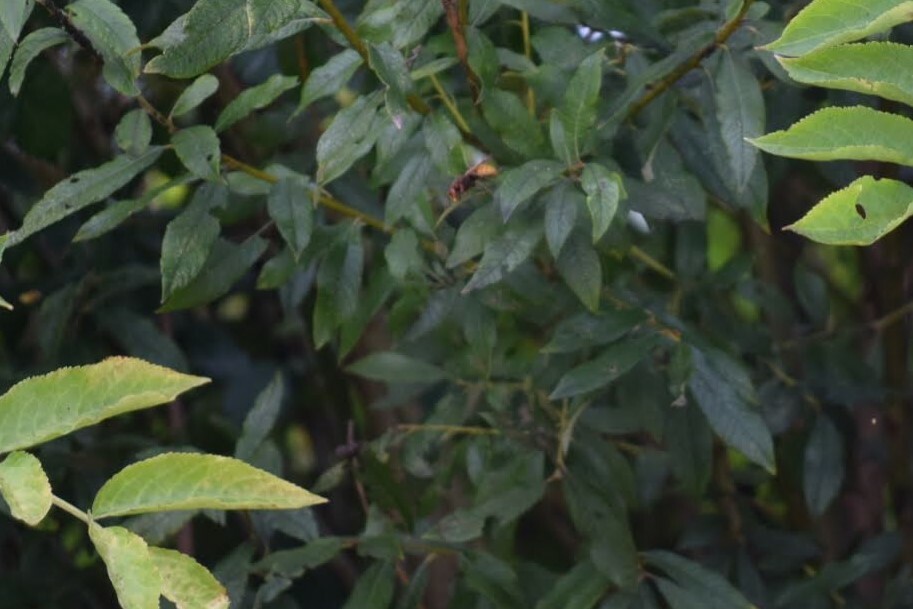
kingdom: Animalia
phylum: Arthropoda
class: Insecta
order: Hymenoptera
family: Vespidae
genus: Vespa
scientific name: Vespa crabro
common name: Hornet
